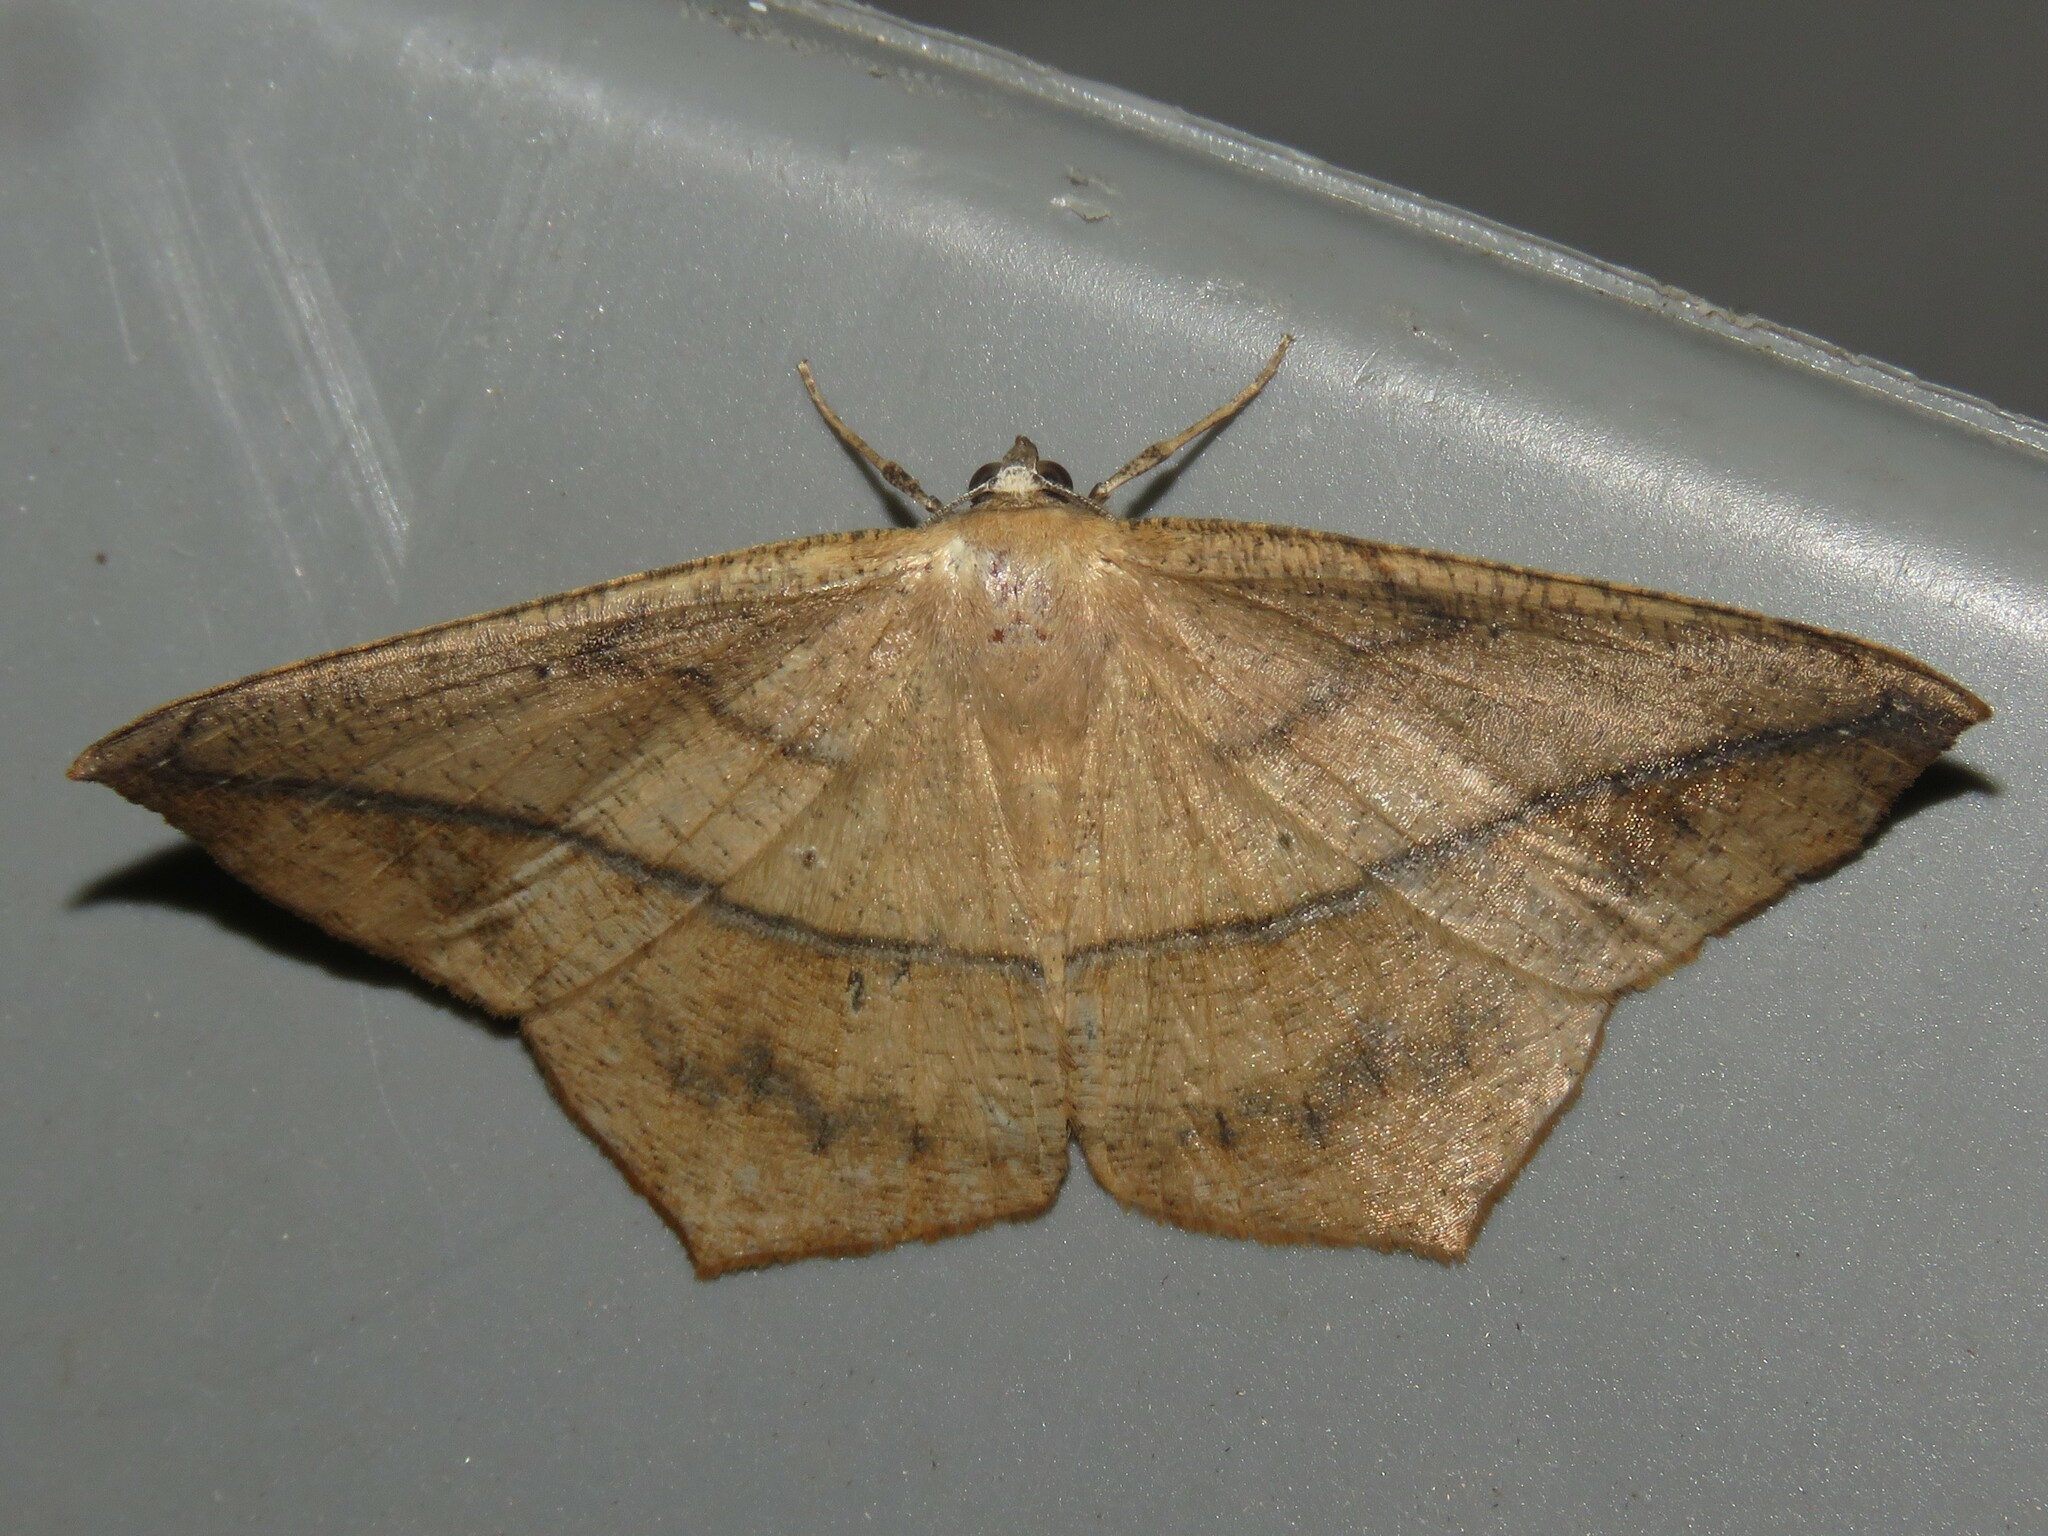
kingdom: Animalia
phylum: Arthropoda
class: Insecta
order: Lepidoptera
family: Geometridae
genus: Prochoerodes
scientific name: Prochoerodes lineola
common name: Large maple spanworm
